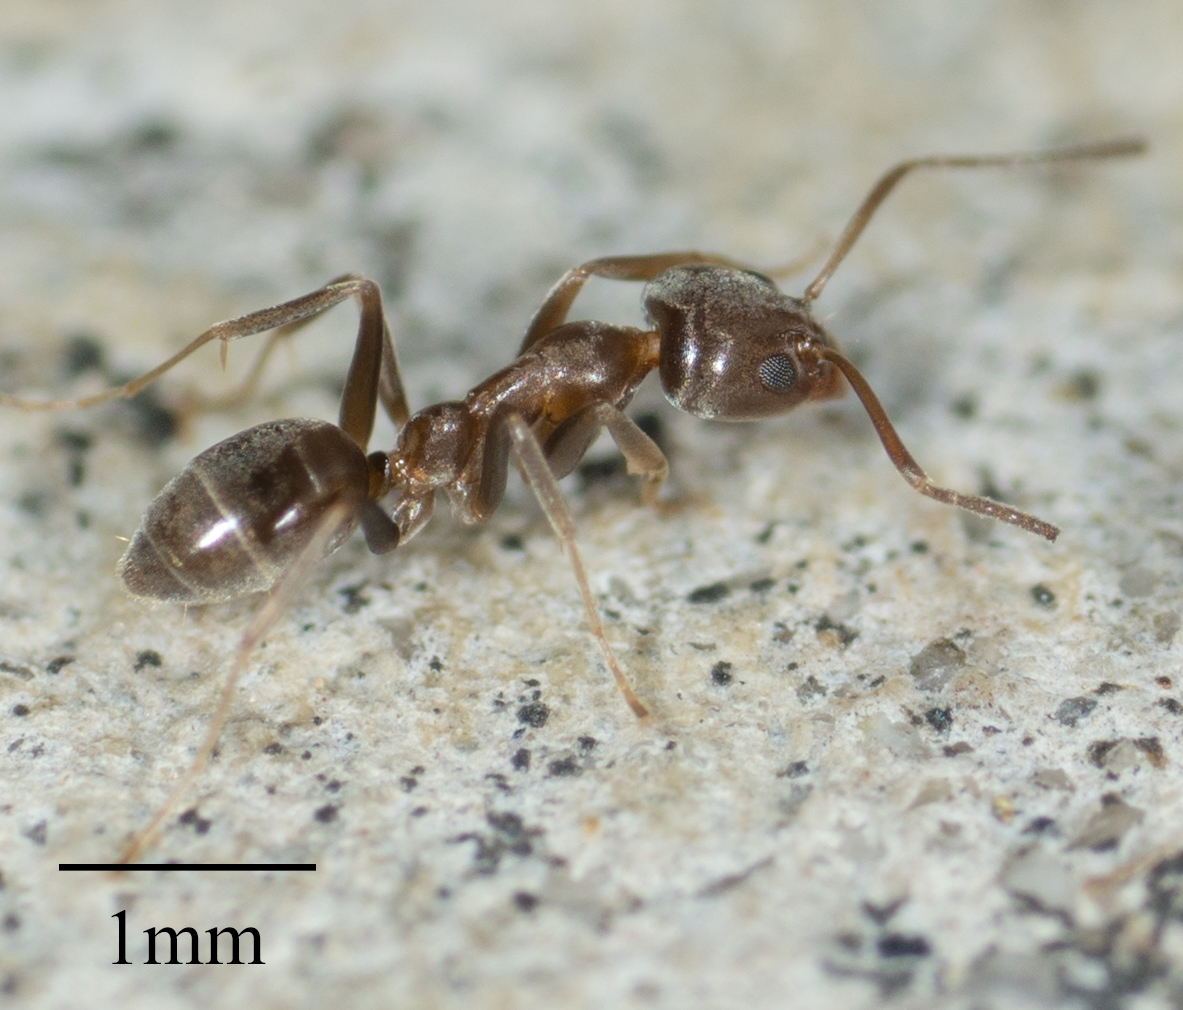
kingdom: Animalia
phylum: Arthropoda
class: Insecta
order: Hymenoptera
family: Formicidae
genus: Linepithema
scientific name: Linepithema humile
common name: Argentine ant
